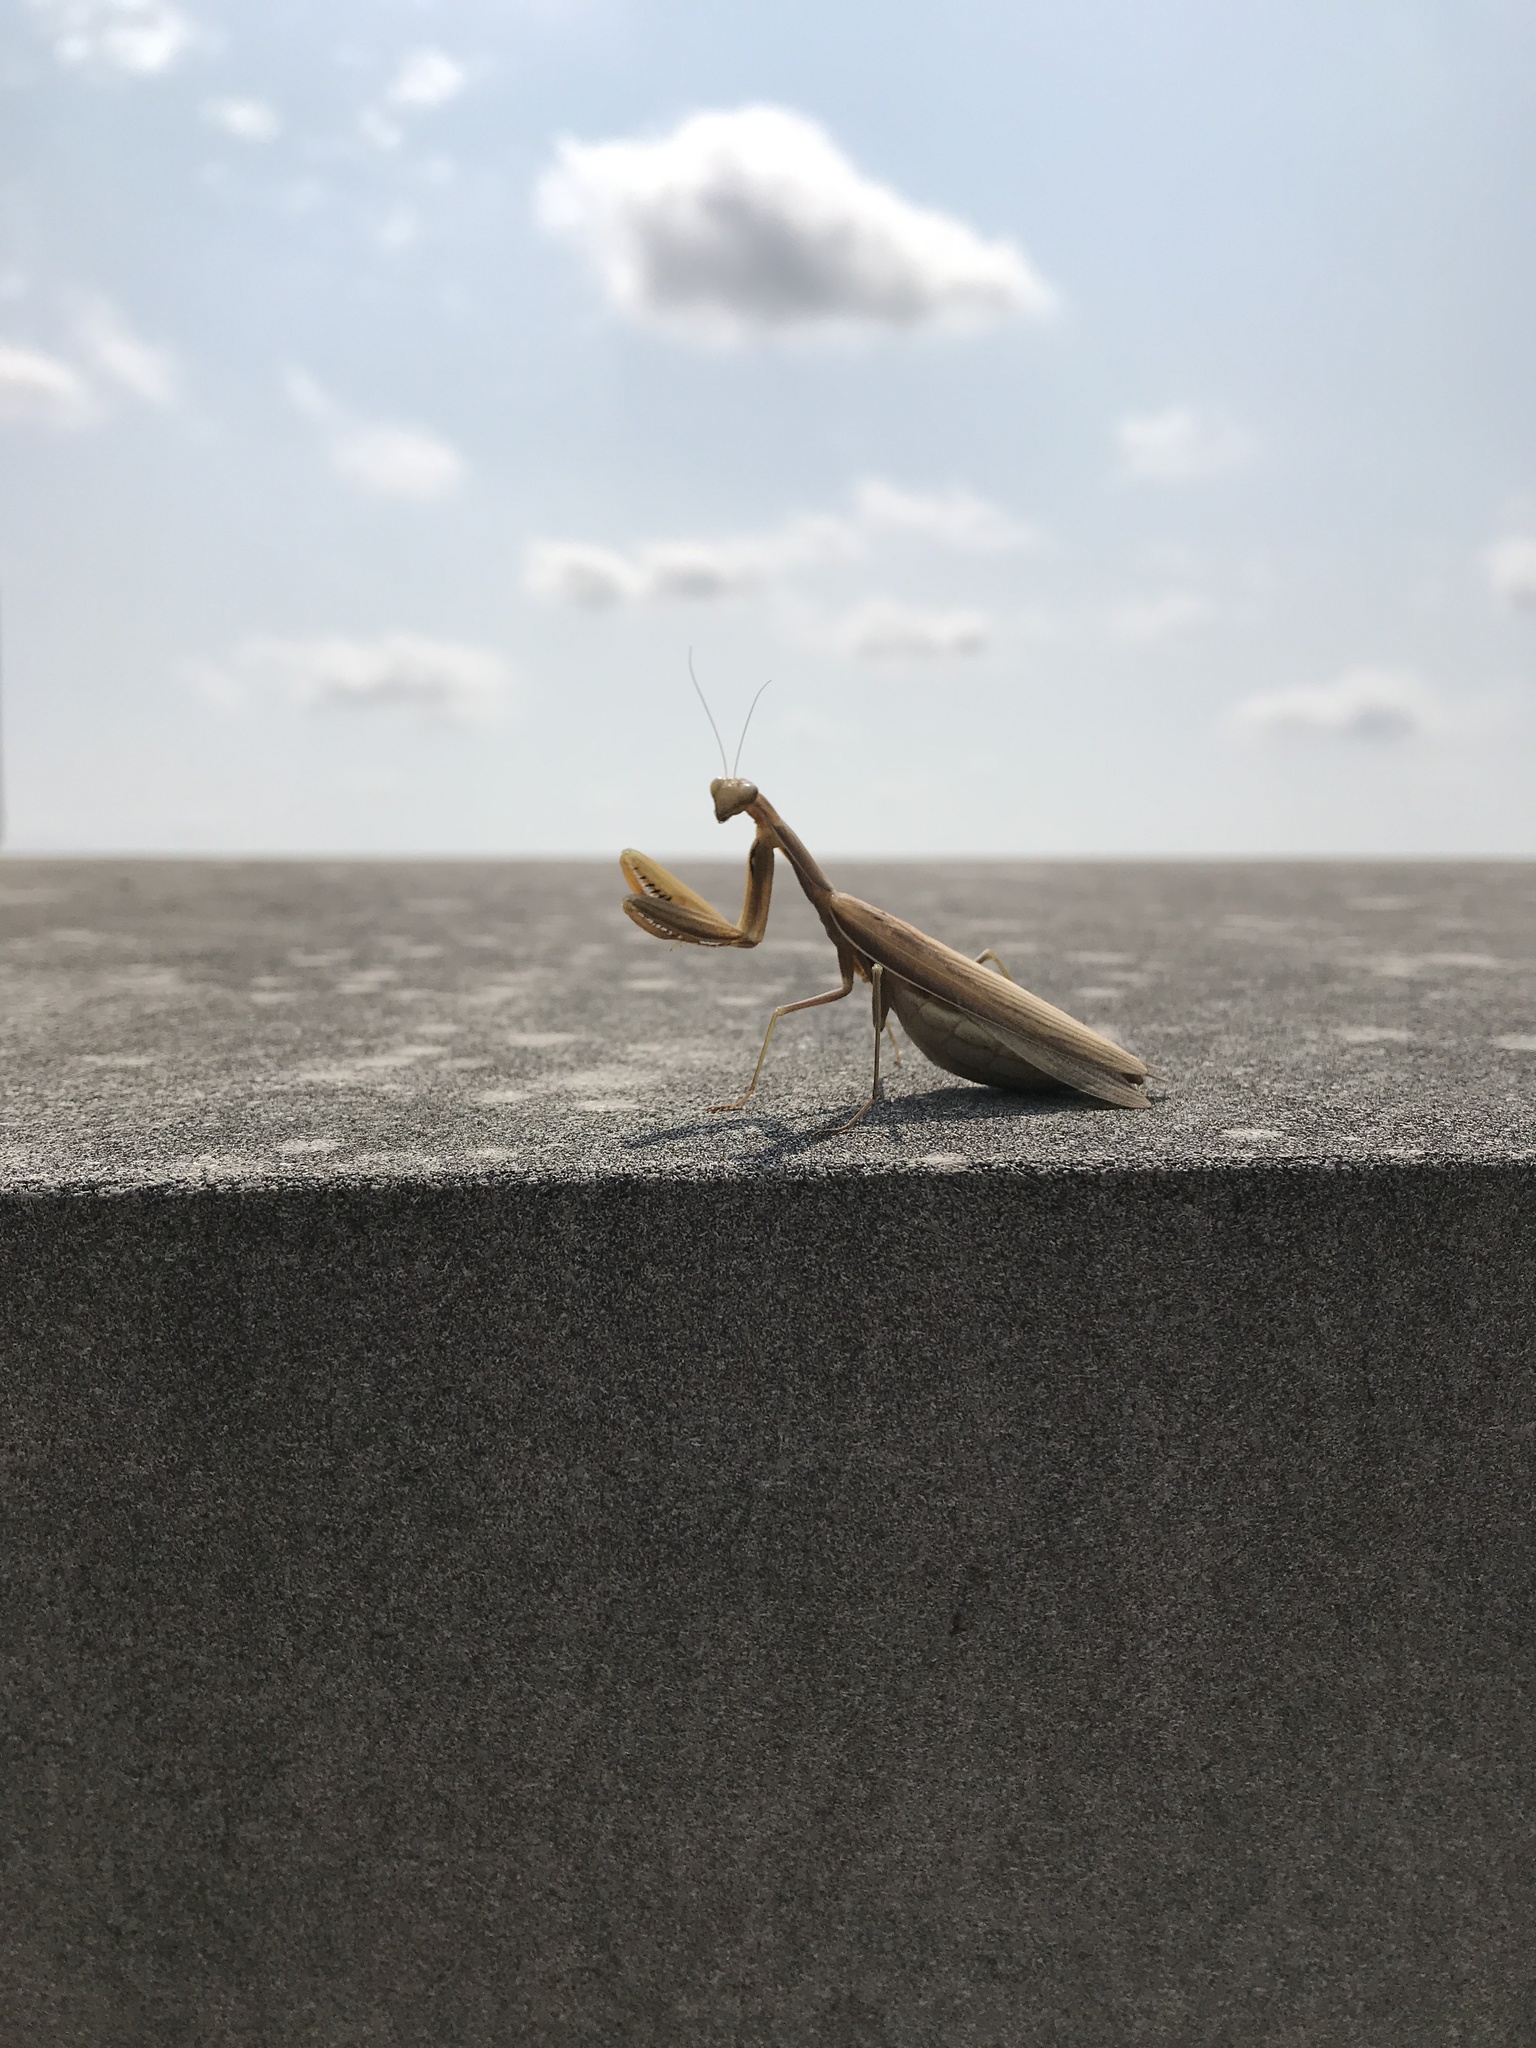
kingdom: Animalia
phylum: Arthropoda
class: Insecta
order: Mantodea
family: Mantidae
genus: Mantis
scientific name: Mantis religiosa
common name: Praying mantis
